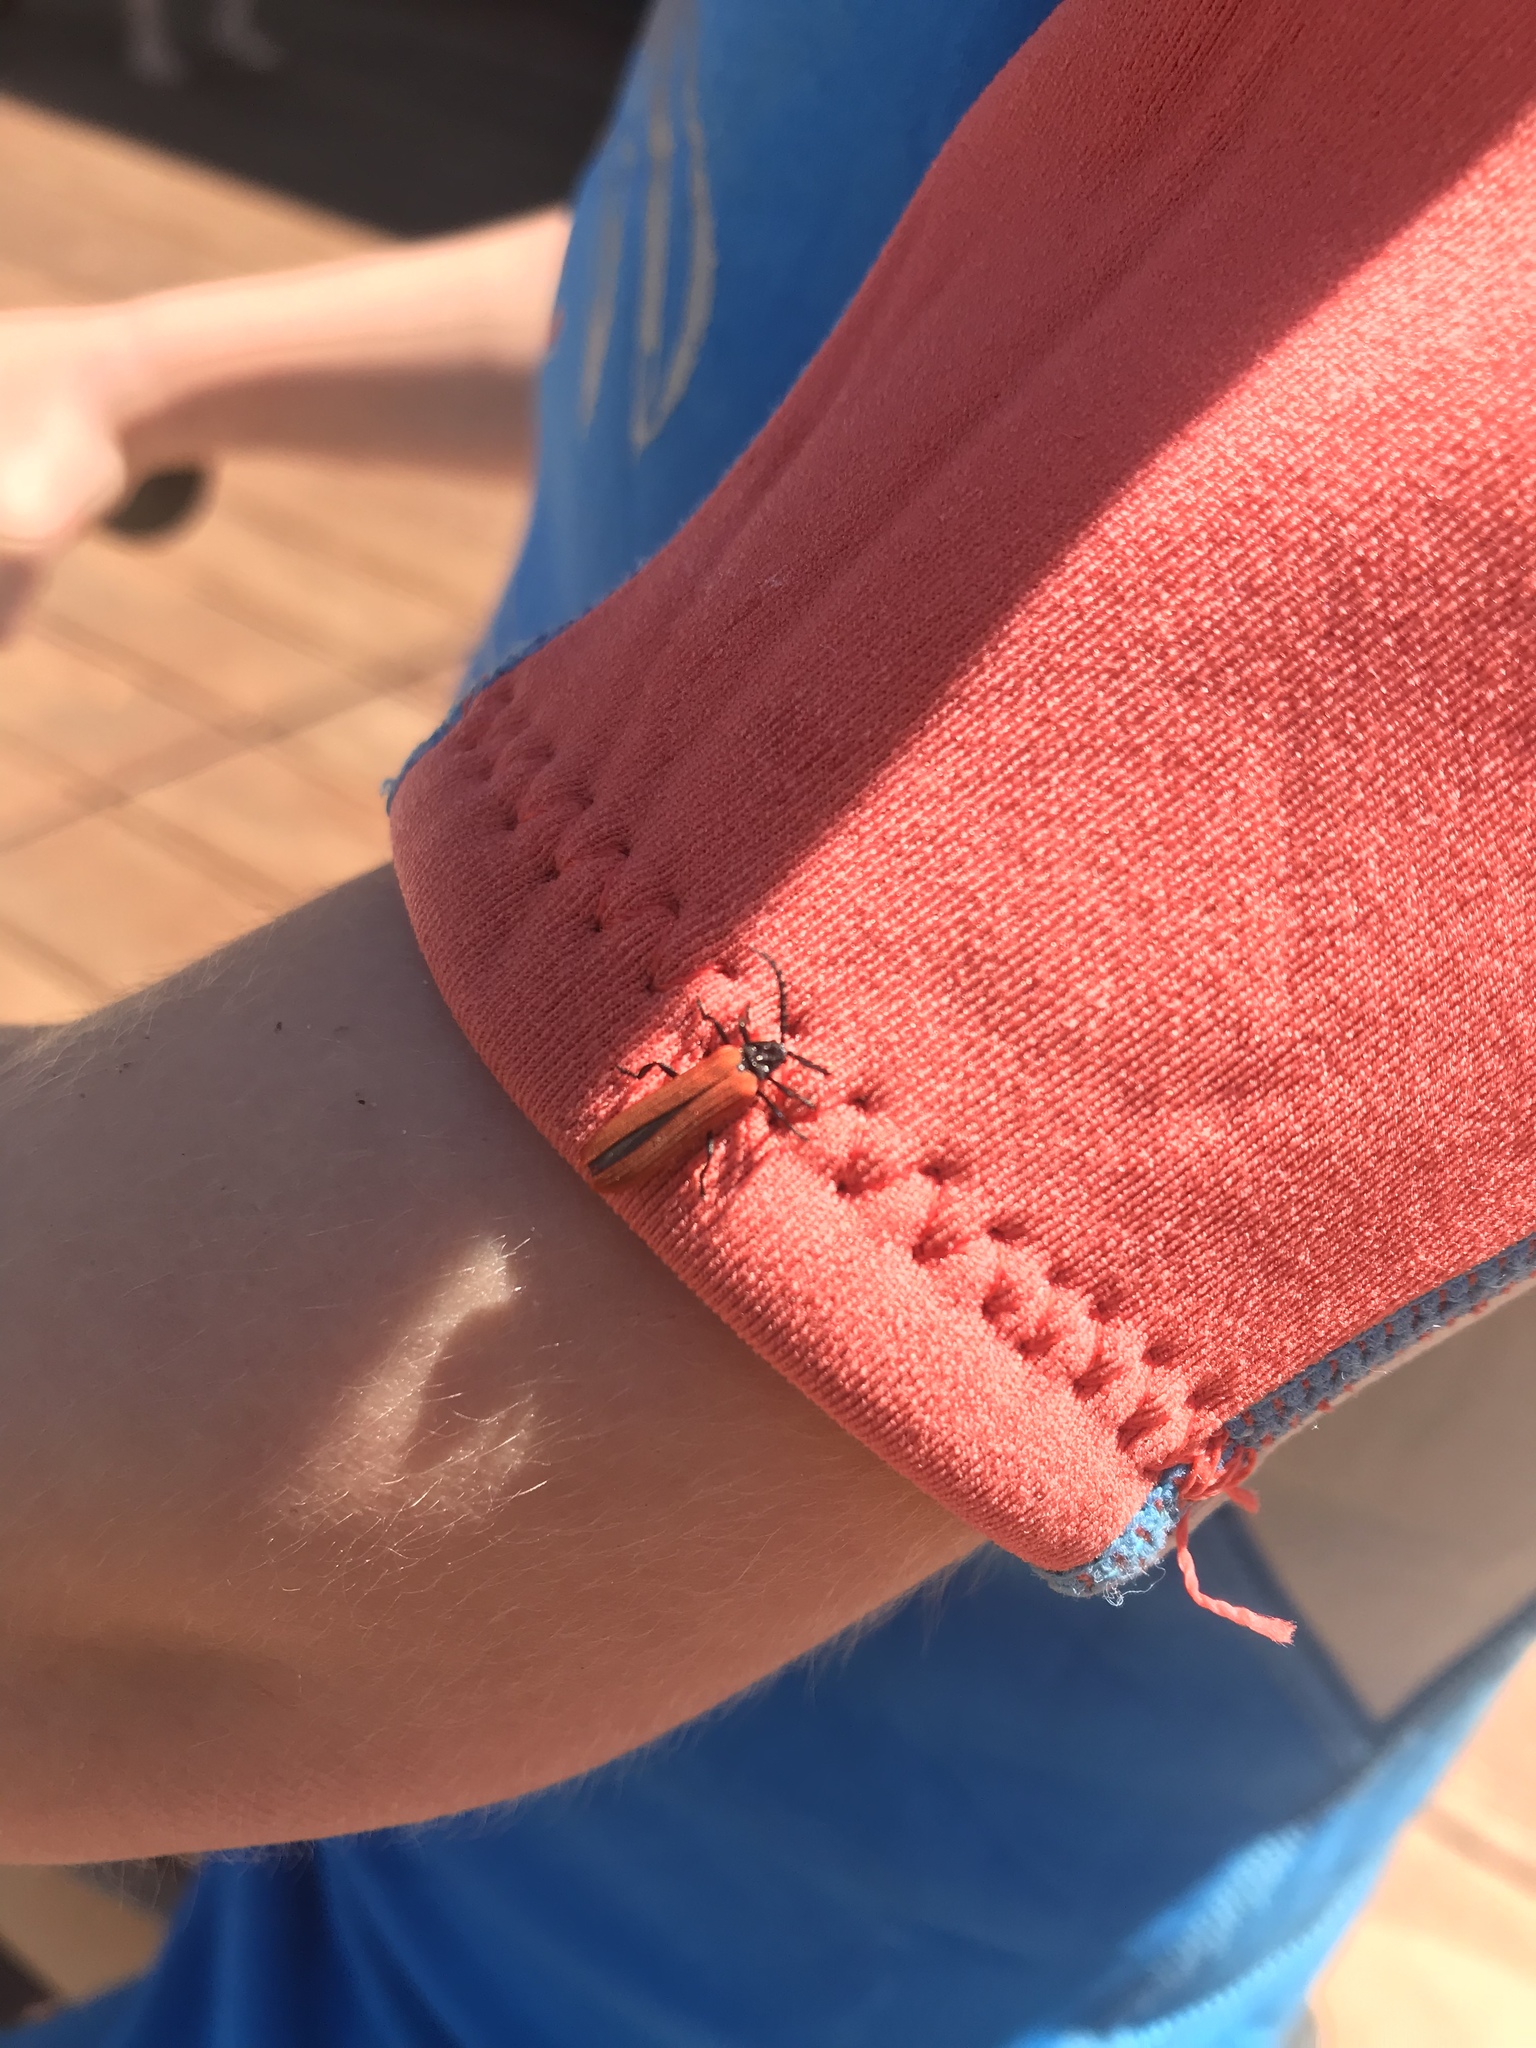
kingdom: Animalia
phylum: Arthropoda
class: Insecta
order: Coleoptera
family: Lycidae
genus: Porrostoma
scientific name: Porrostoma rufipenne
